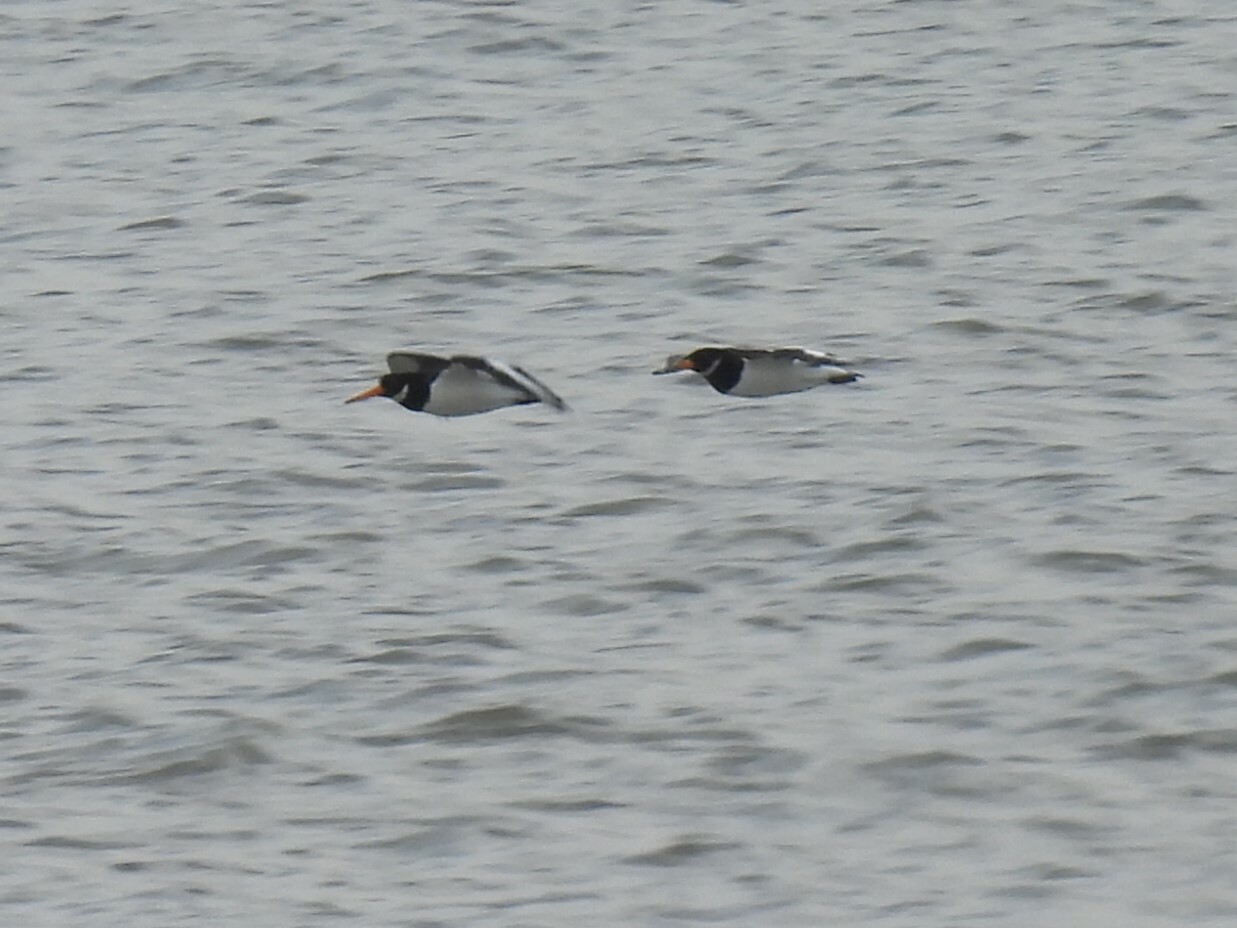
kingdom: Animalia
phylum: Chordata
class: Aves
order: Charadriiformes
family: Haematopodidae
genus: Haematopus
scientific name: Haematopus ostralegus
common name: Eurasian oystercatcher
